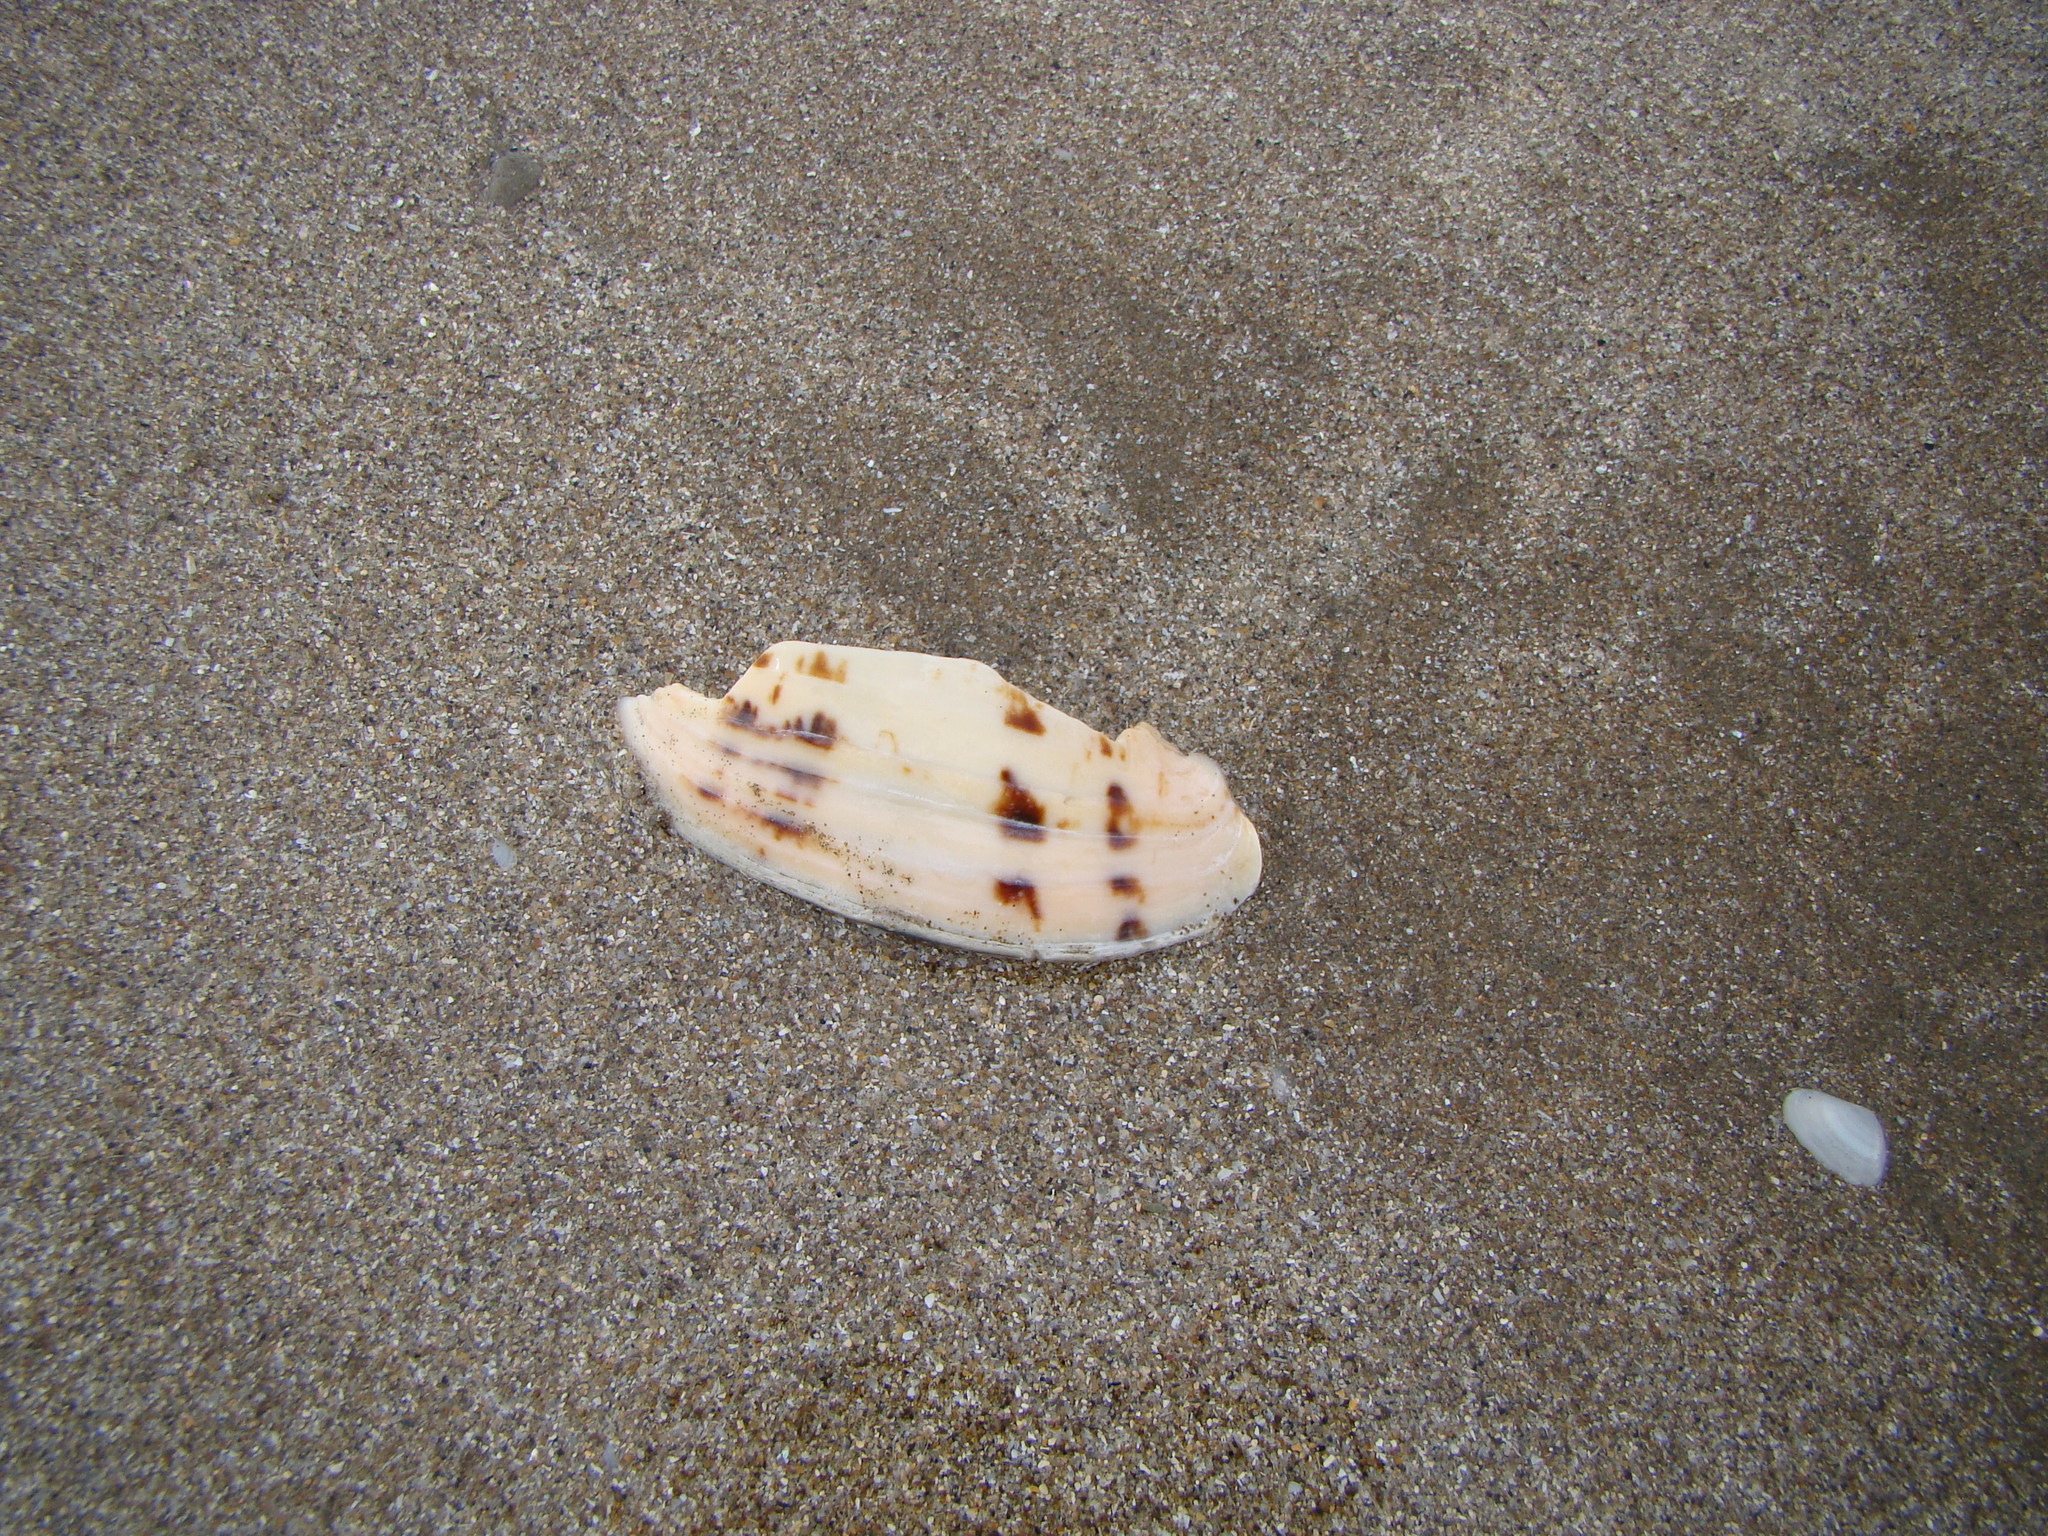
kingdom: Animalia
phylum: Mollusca
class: Gastropoda
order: Neogastropoda
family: Volutidae
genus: Alcithoe
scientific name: Alcithoe arabica
